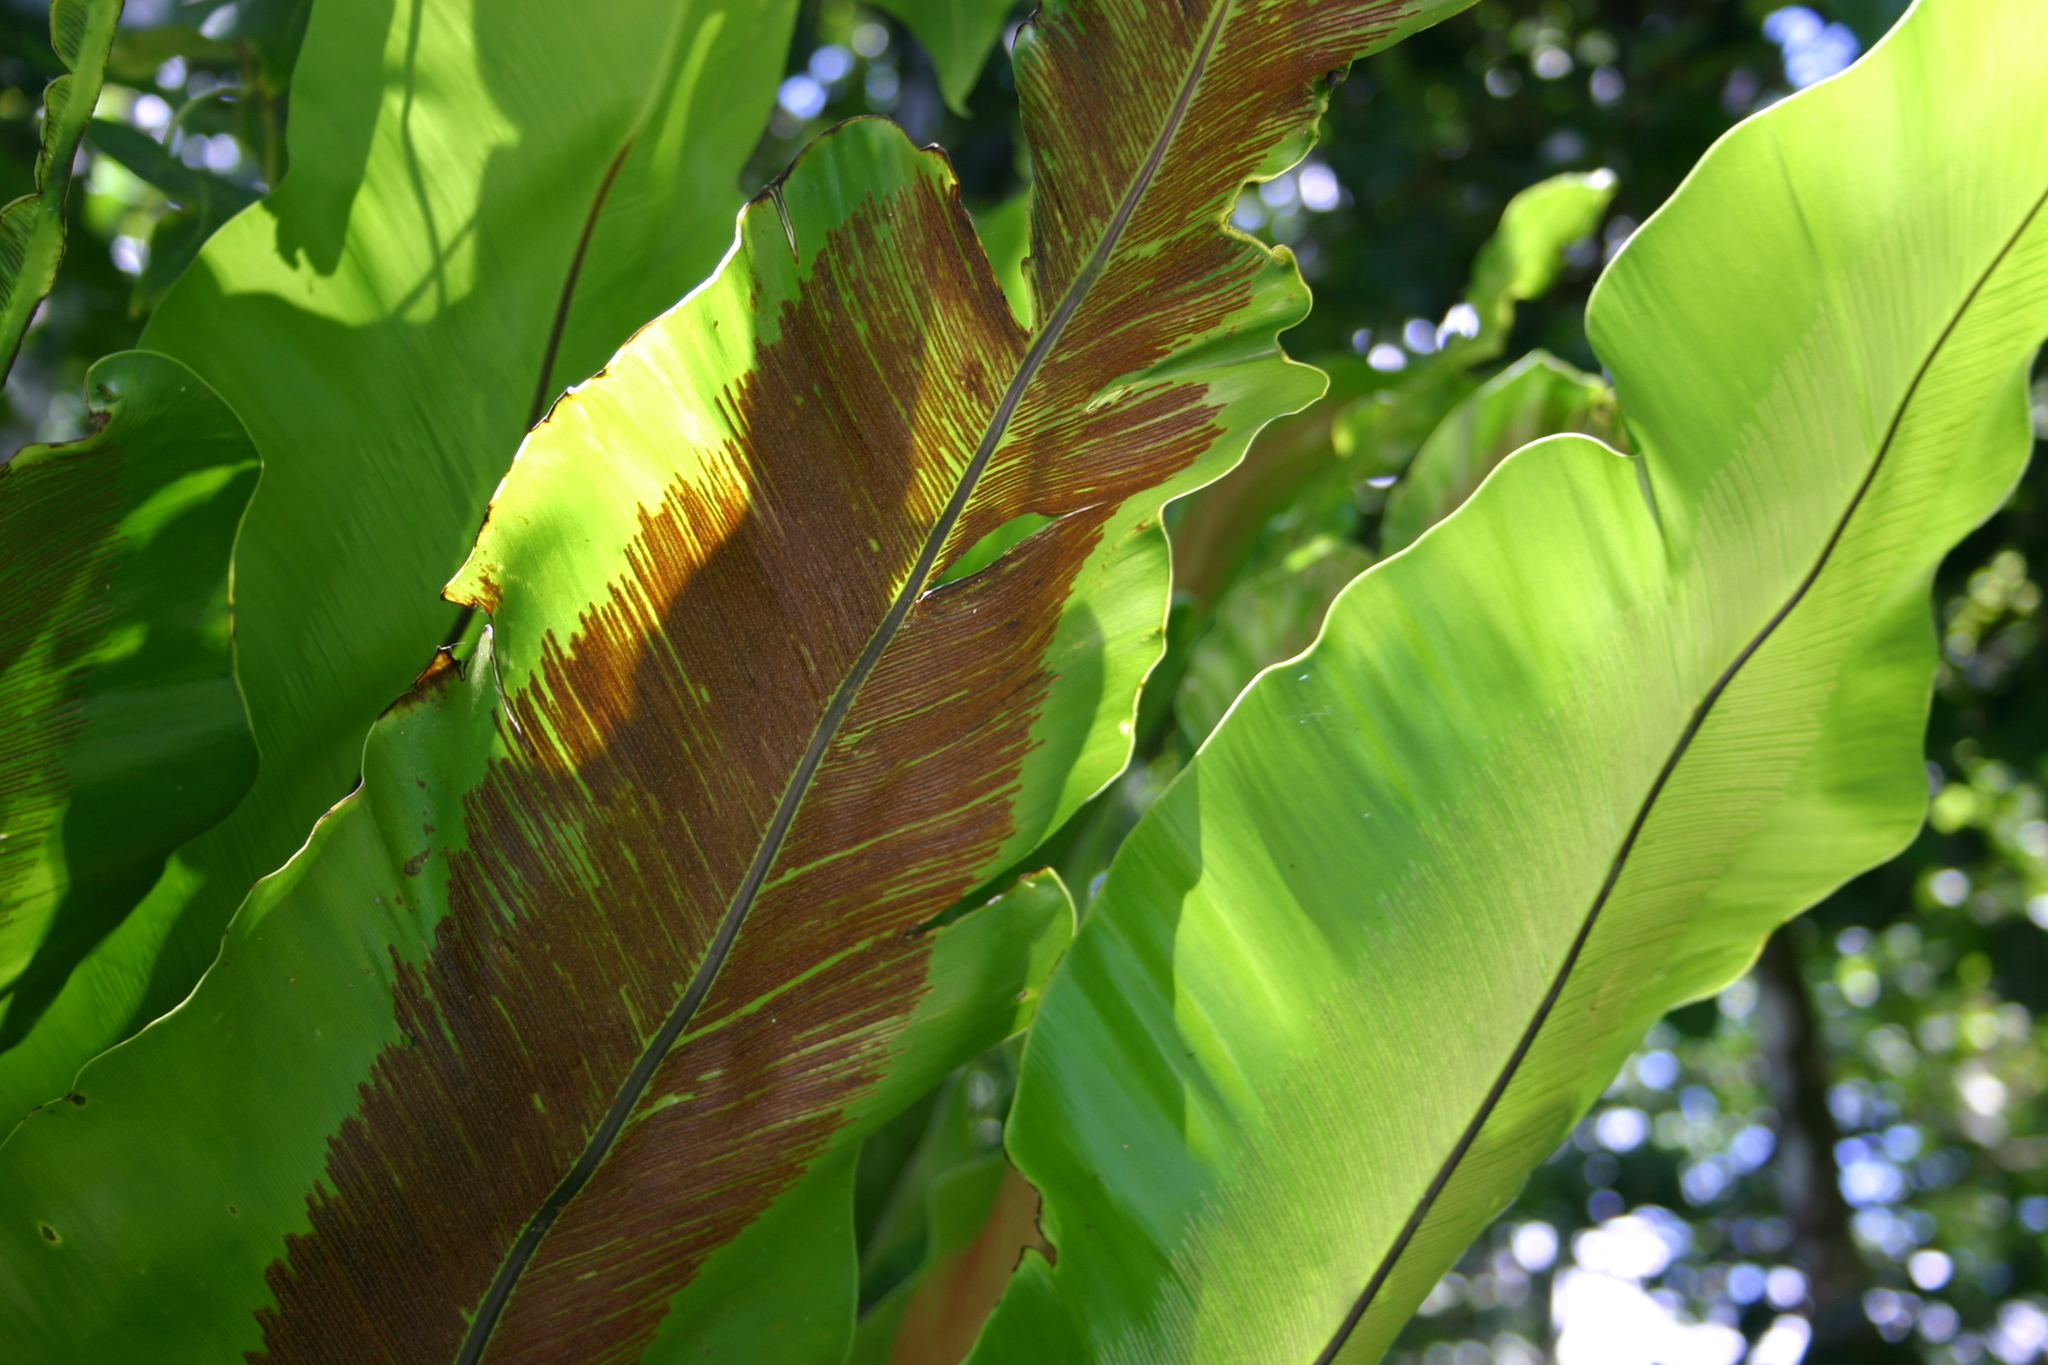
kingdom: Plantae
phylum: Tracheophyta
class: Polypodiopsida
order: Polypodiales
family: Aspleniaceae
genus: Asplenium
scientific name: Asplenium nidus
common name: Bird's-nest fern
